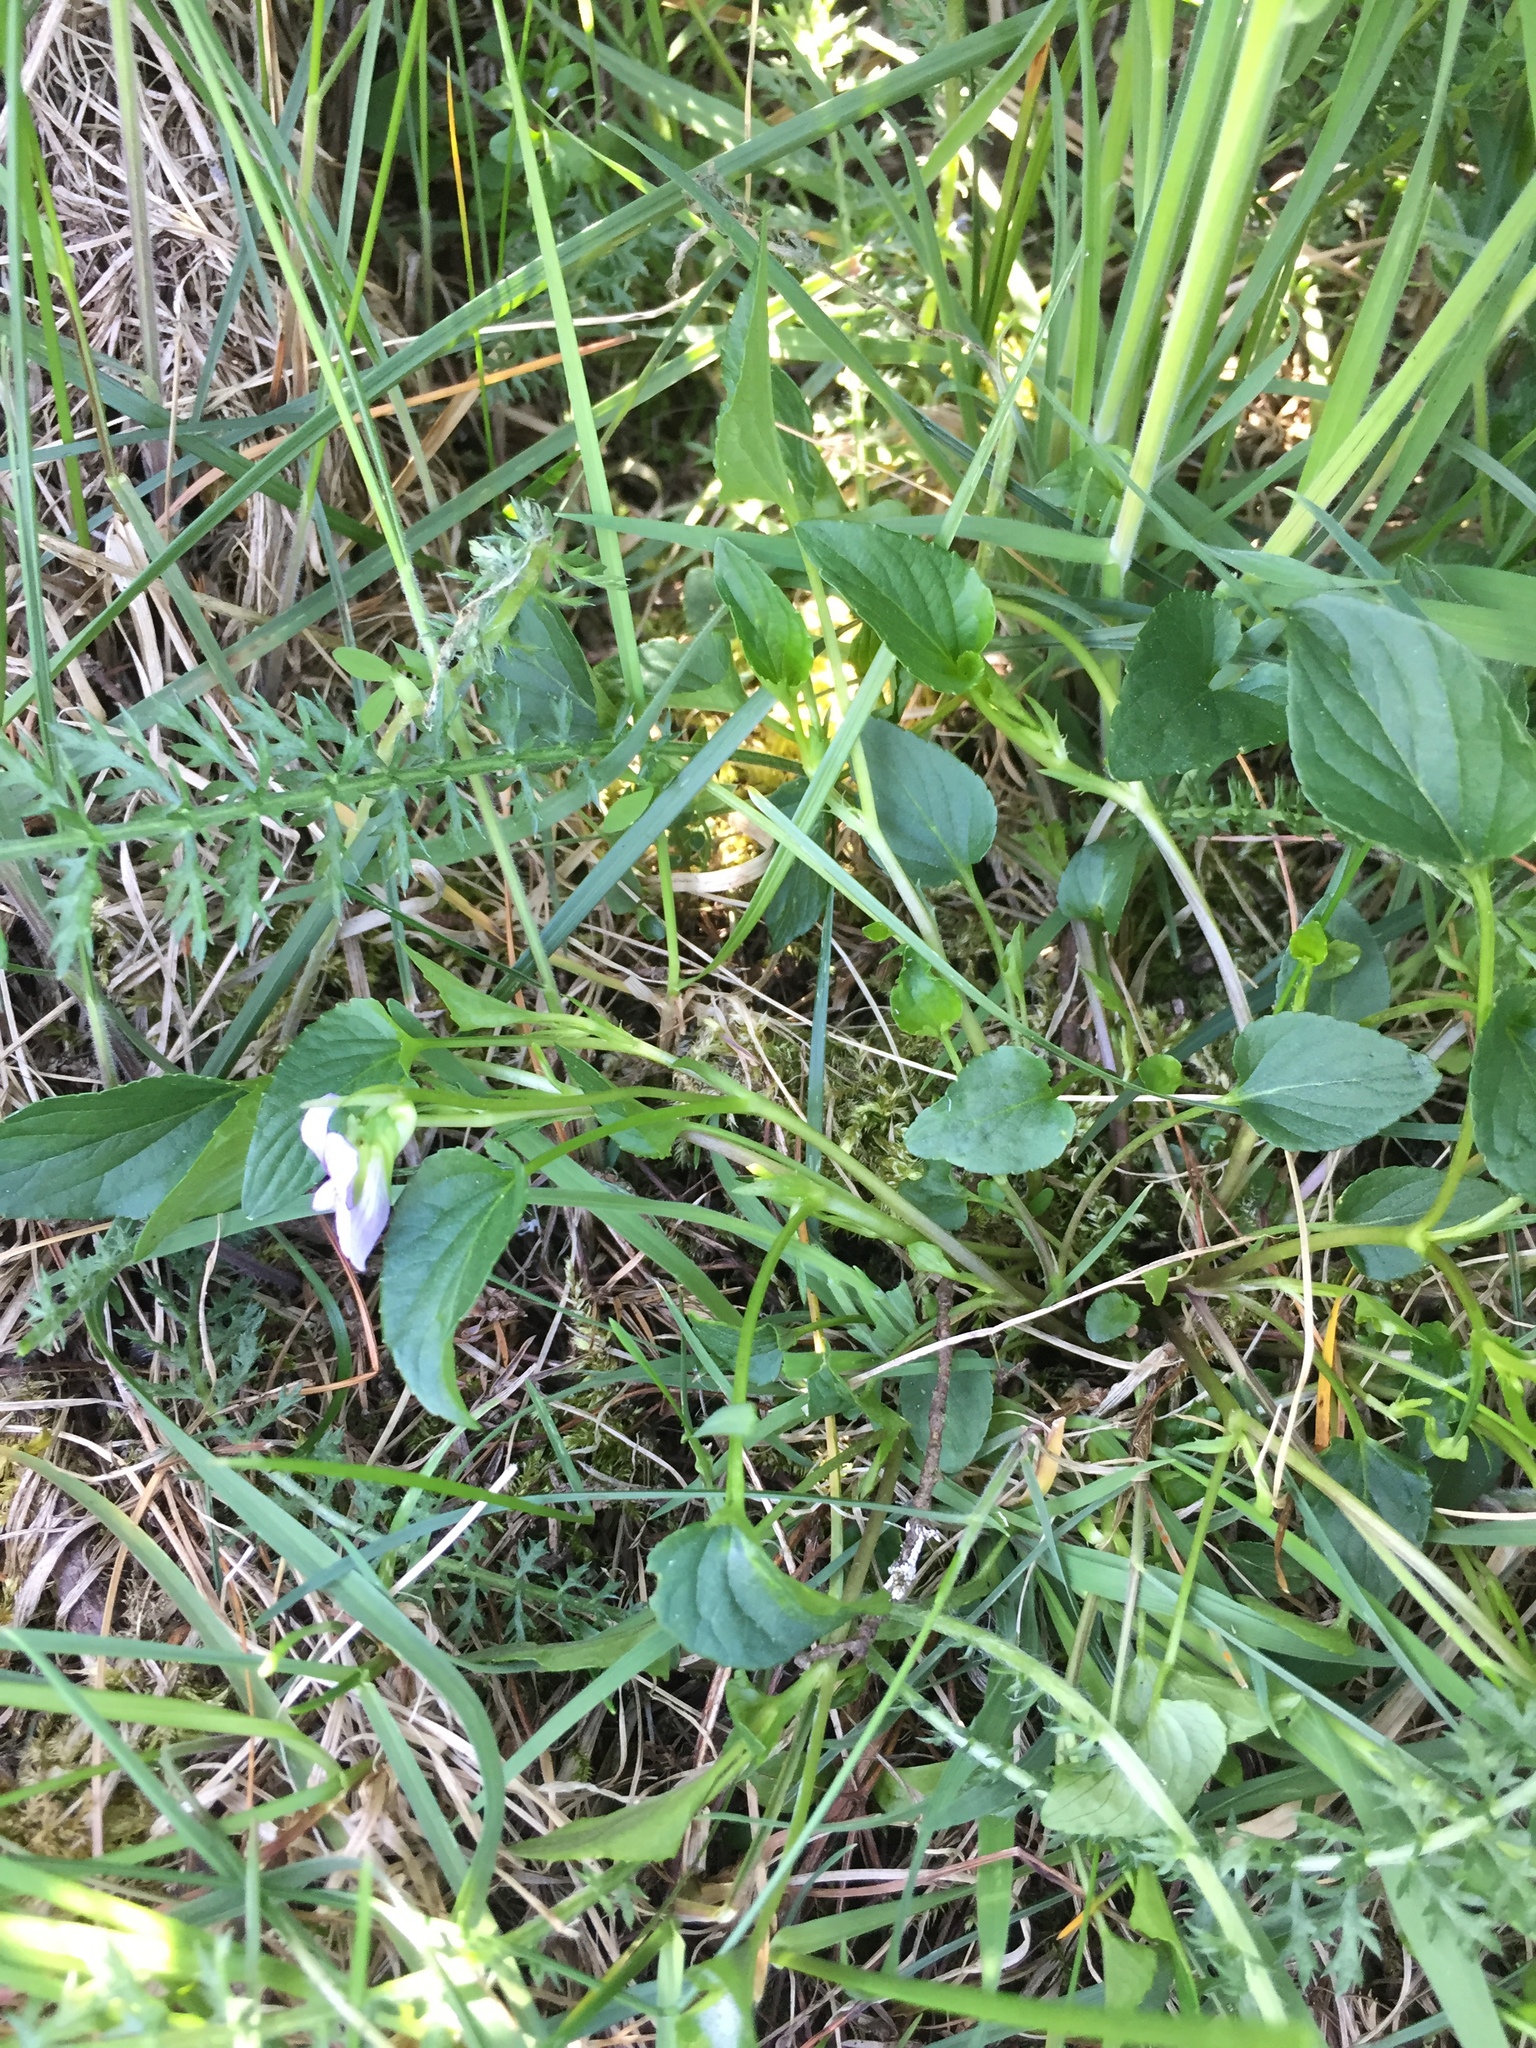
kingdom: Plantae
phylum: Tracheophyta
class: Magnoliopsida
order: Malpighiales
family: Violaceae
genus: Viola
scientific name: Viola canina
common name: Heath dog-violet
